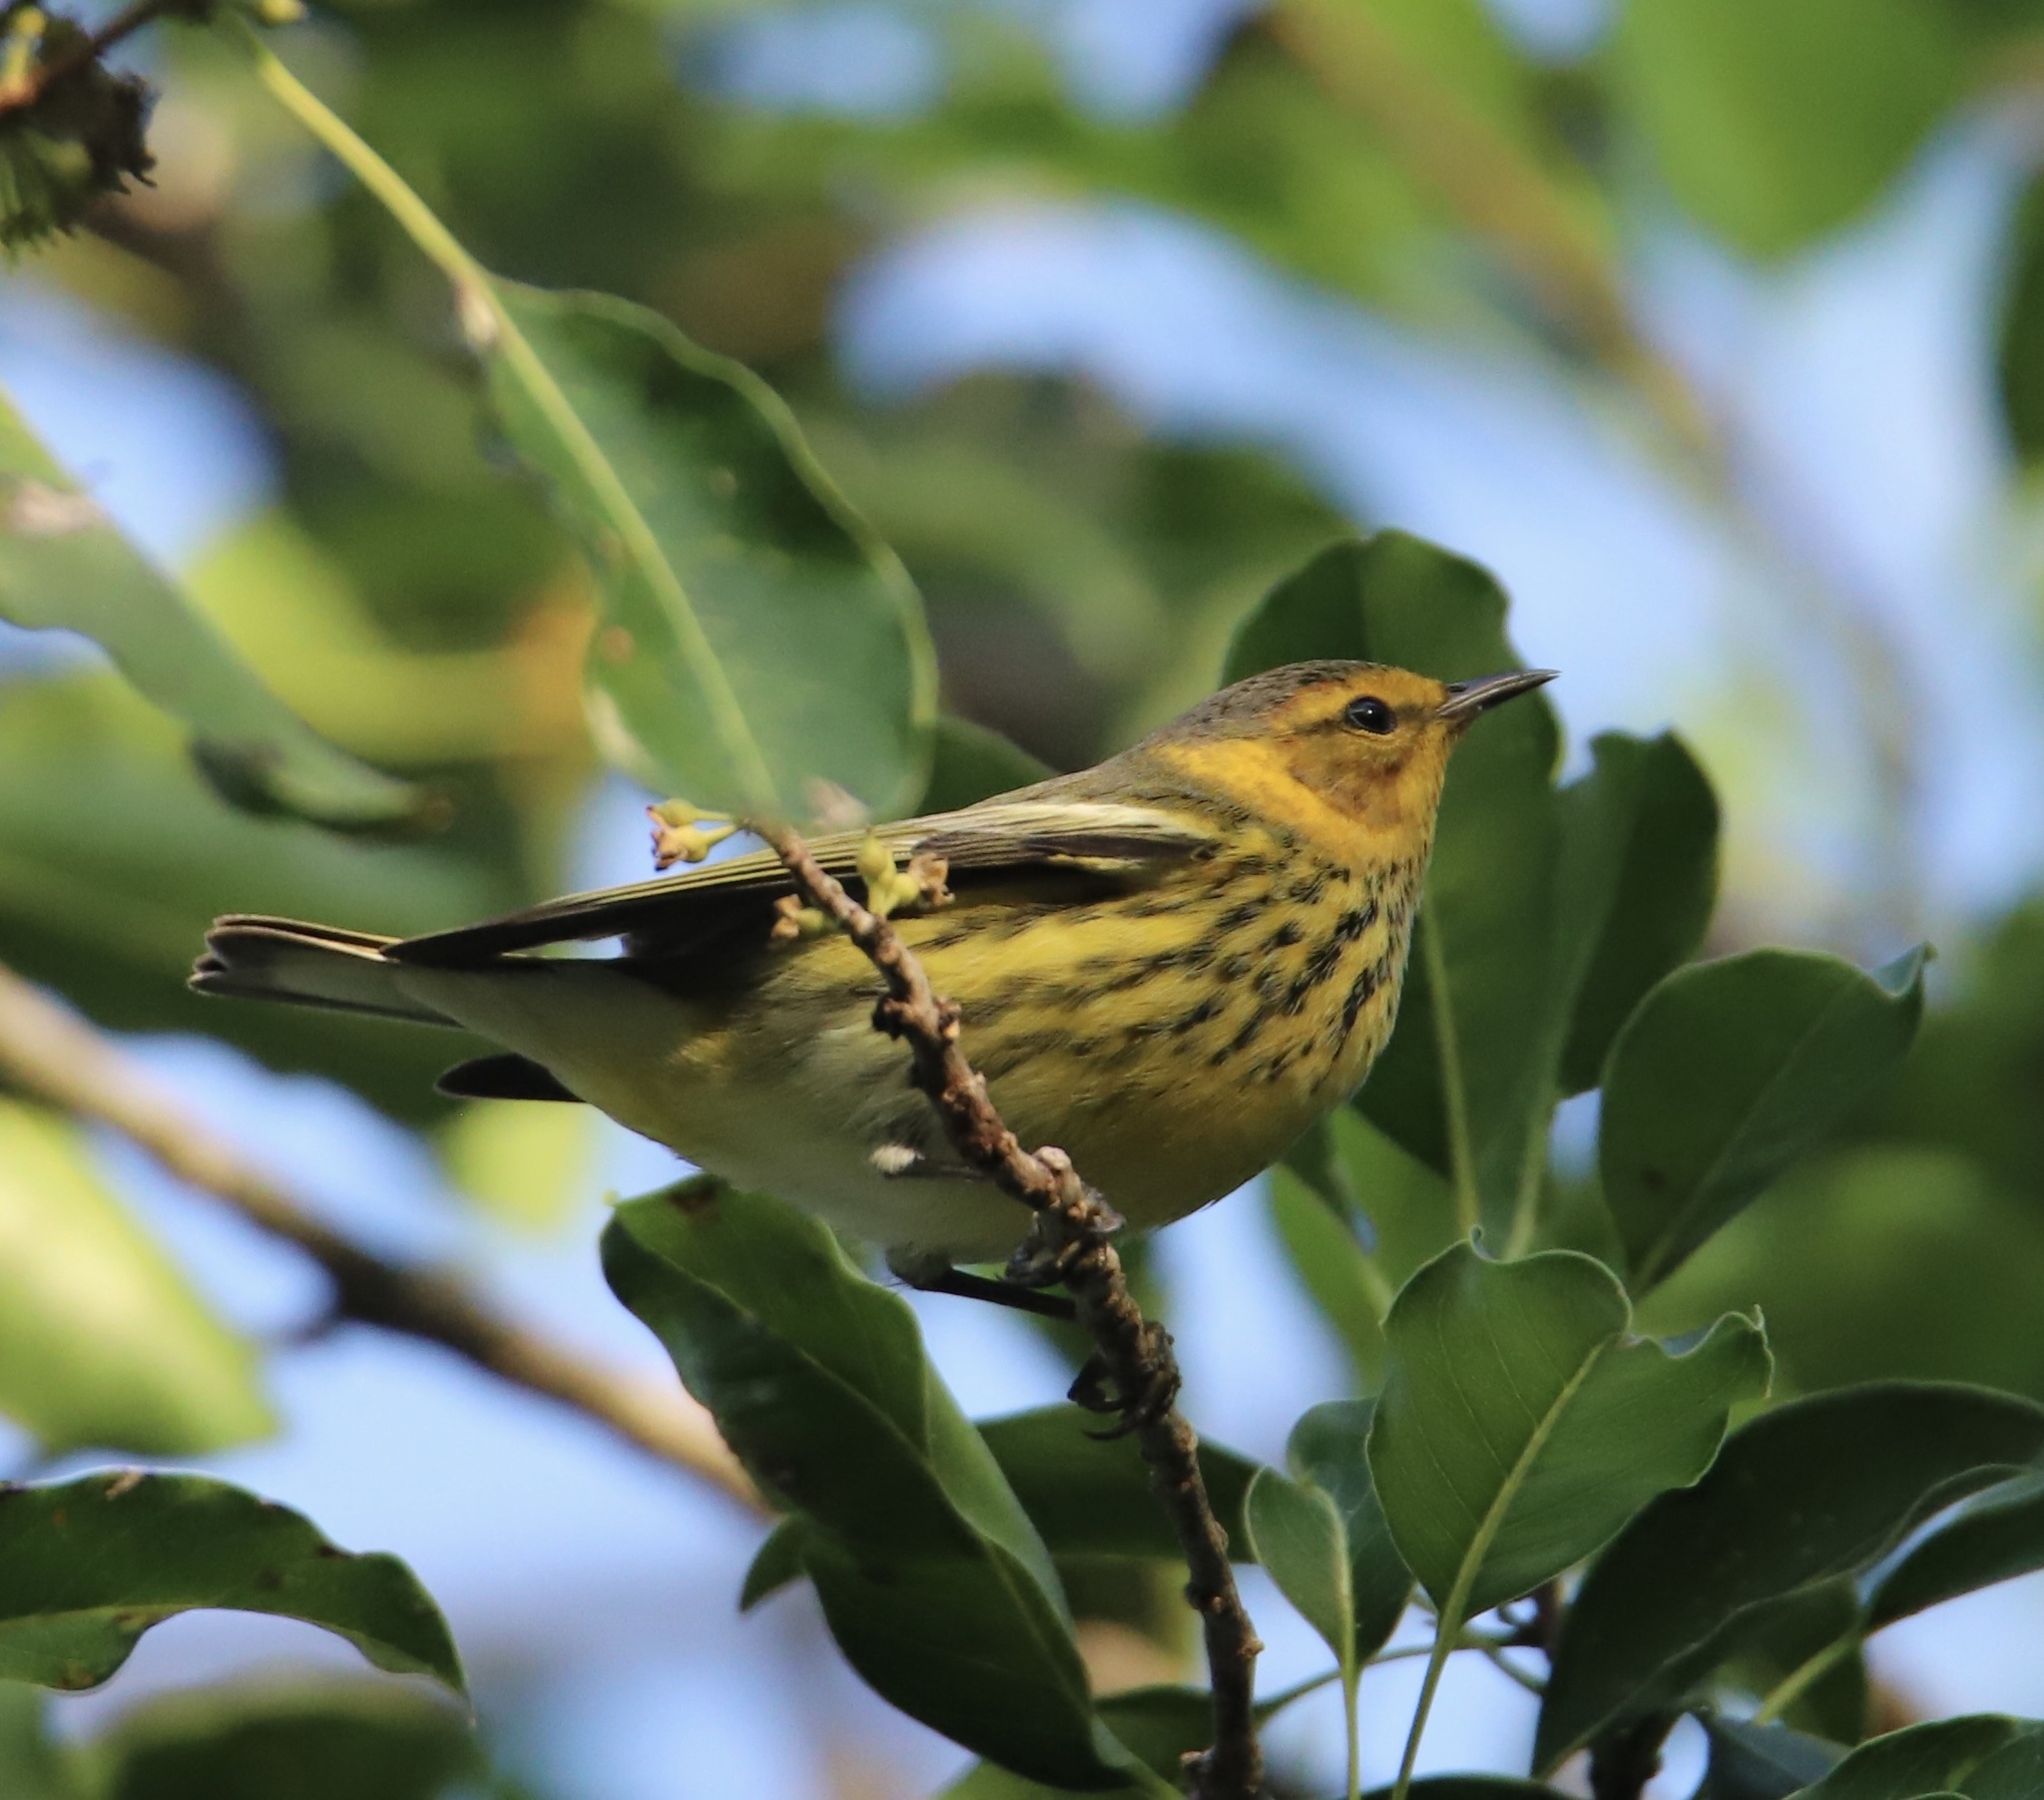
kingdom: Animalia
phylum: Chordata
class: Aves
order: Passeriformes
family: Parulidae
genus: Setophaga
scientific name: Setophaga tigrina
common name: Cape may warbler
